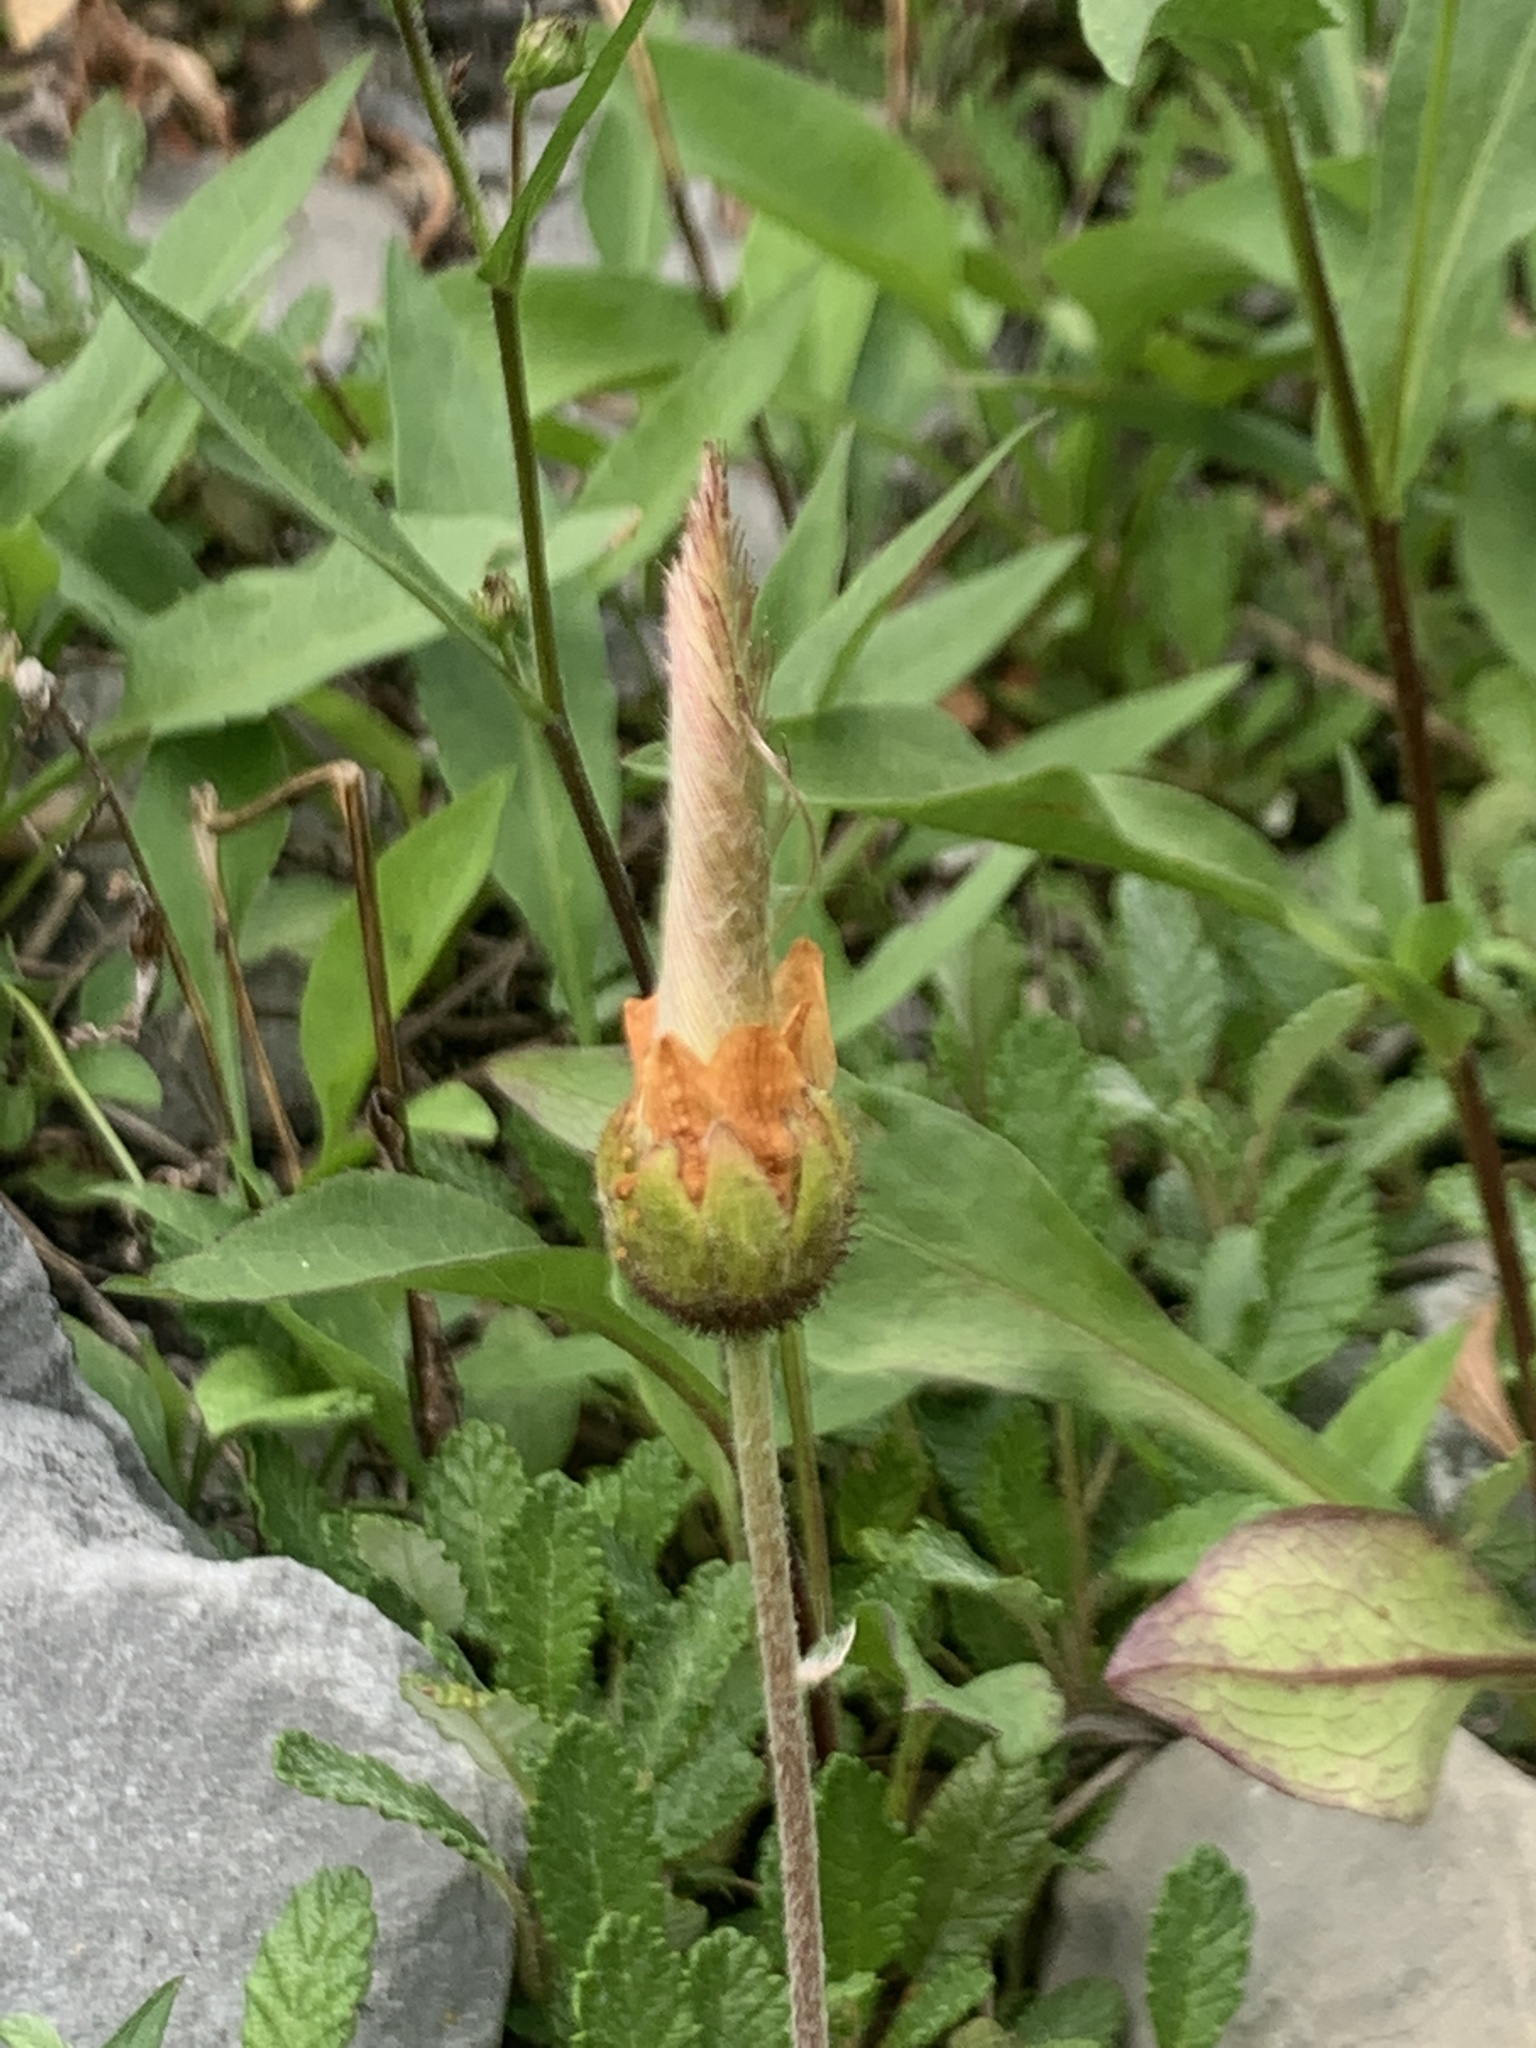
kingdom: Plantae
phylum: Tracheophyta
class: Magnoliopsida
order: Rosales
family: Rosaceae
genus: Dryas
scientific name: Dryas octopetala
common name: Eight-petal mountain-avens
